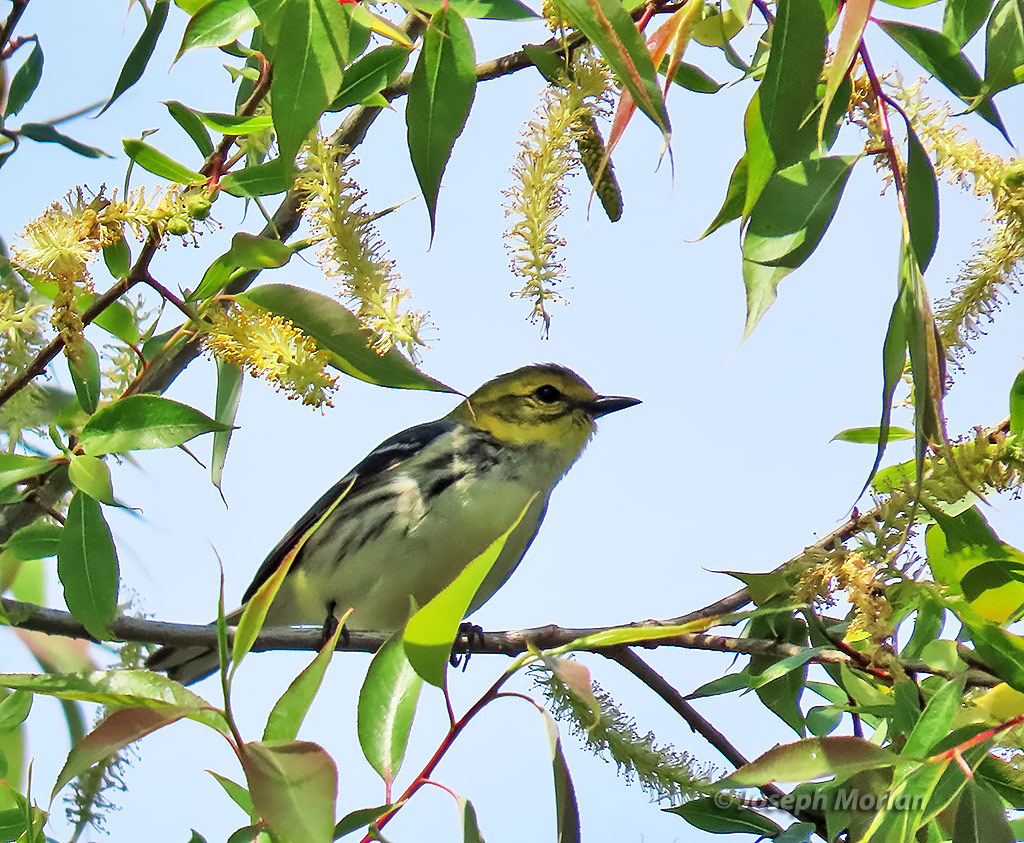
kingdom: Animalia
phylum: Chordata
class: Aves
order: Passeriformes
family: Parulidae
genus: Setophaga
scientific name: Setophaga virens
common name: Black-throated green warbler
